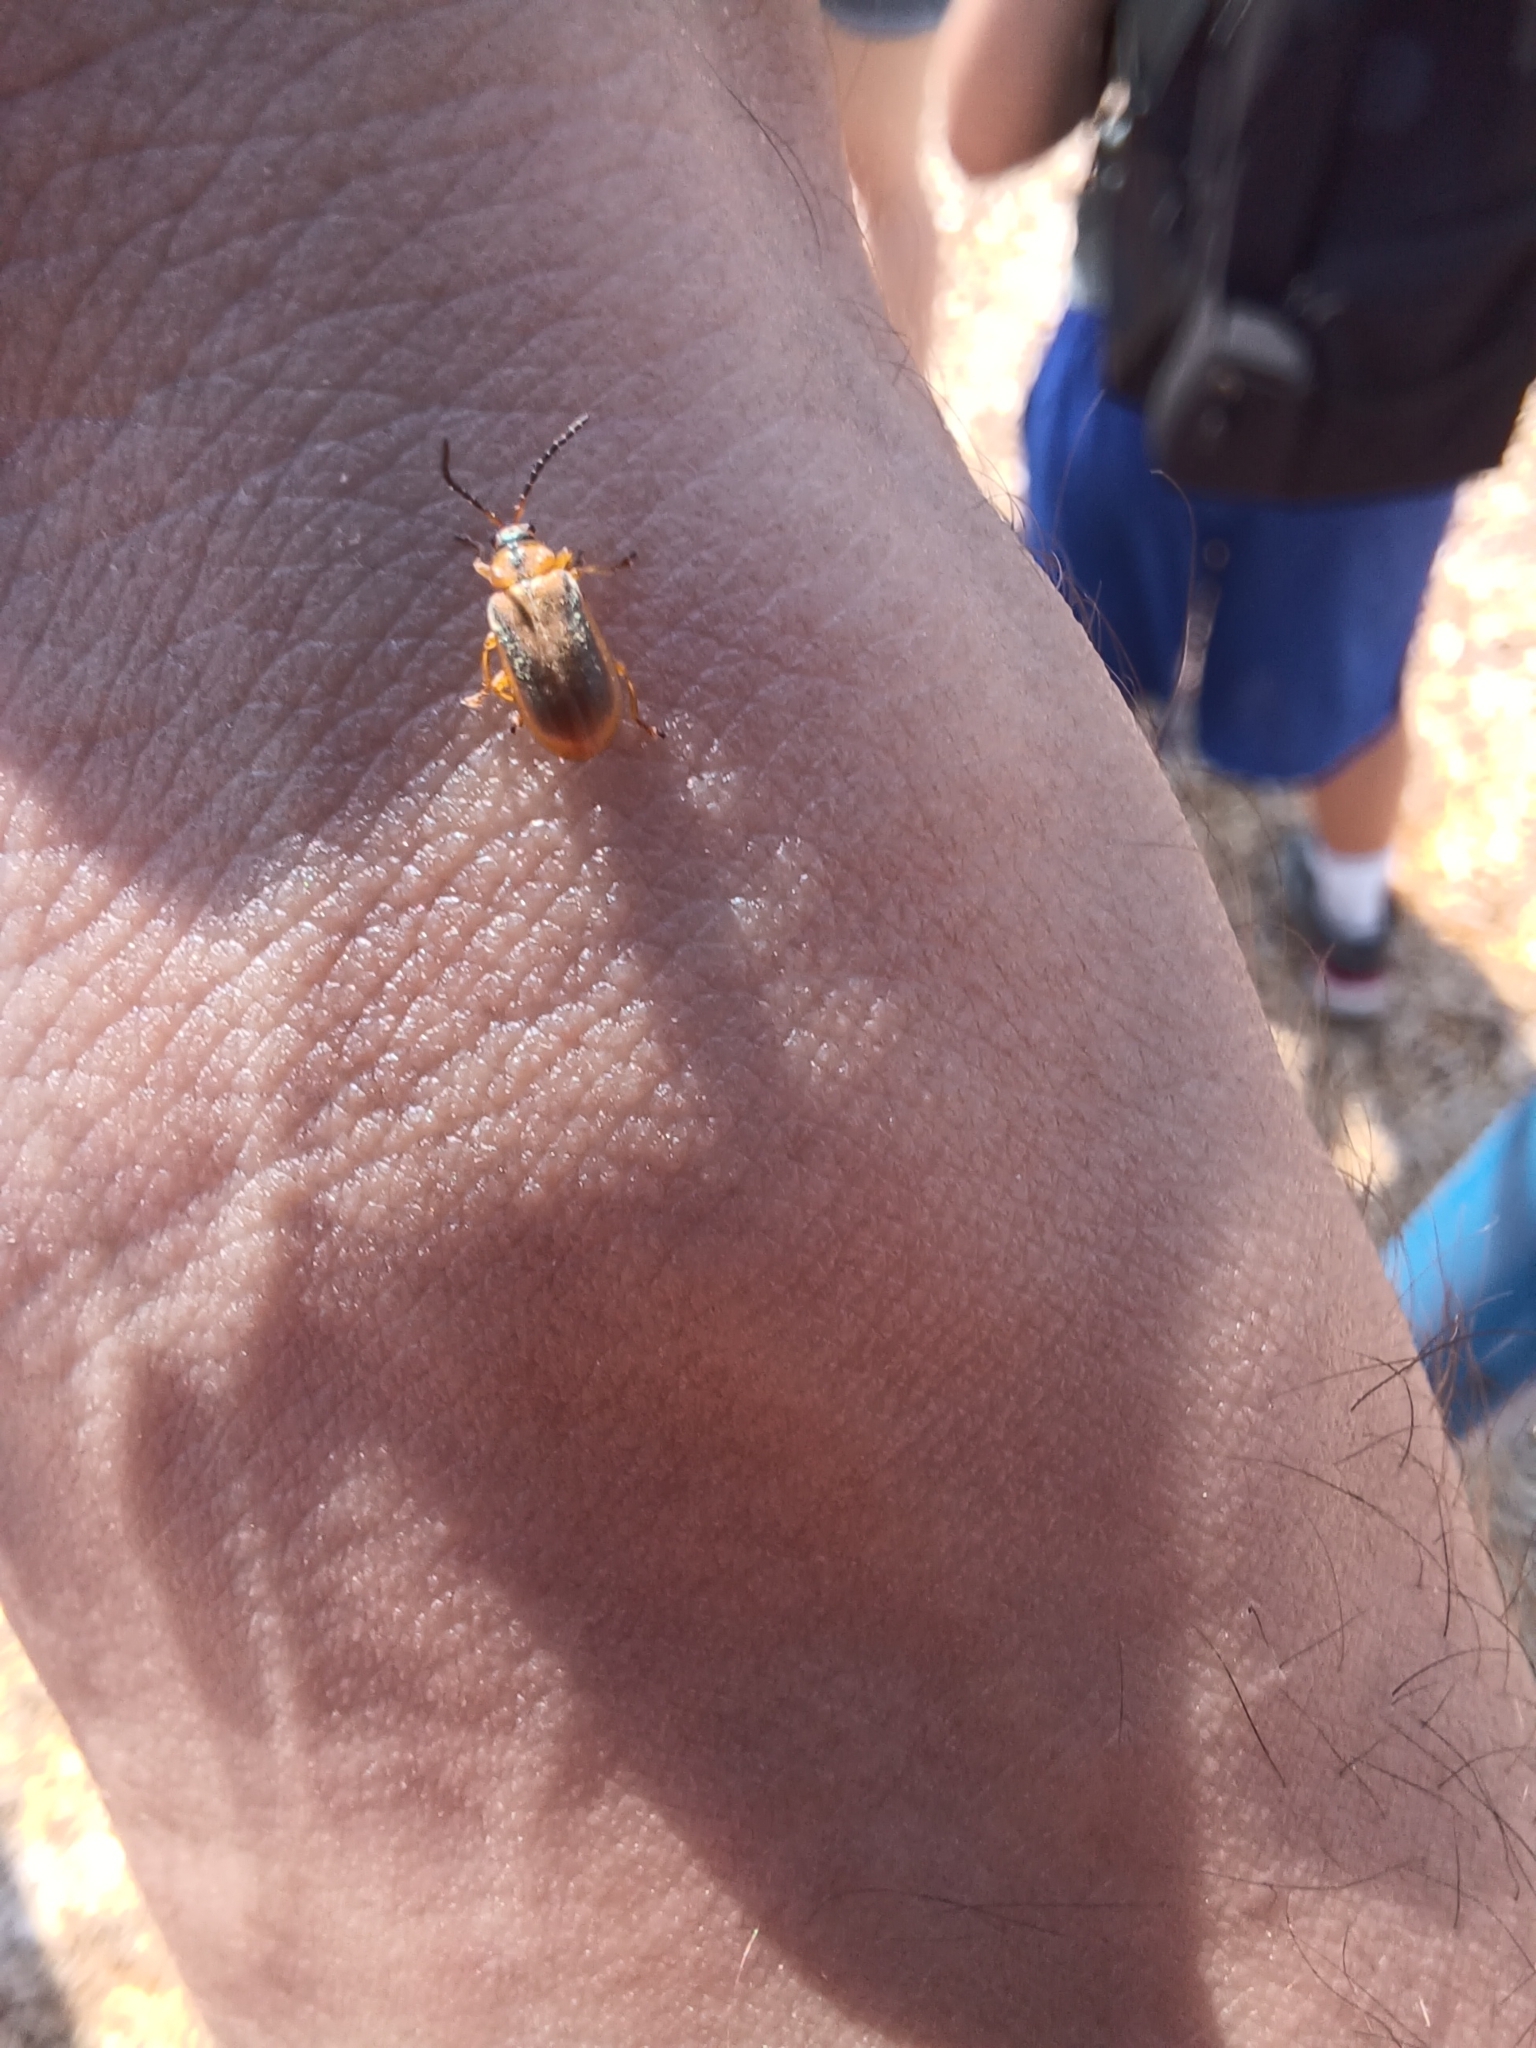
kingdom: Animalia
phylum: Arthropoda
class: Insecta
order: Coleoptera
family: Chrysomelidae
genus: Neogalerucella
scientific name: Neogalerucella calmariensis
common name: Black-margined loosestrife beetle
